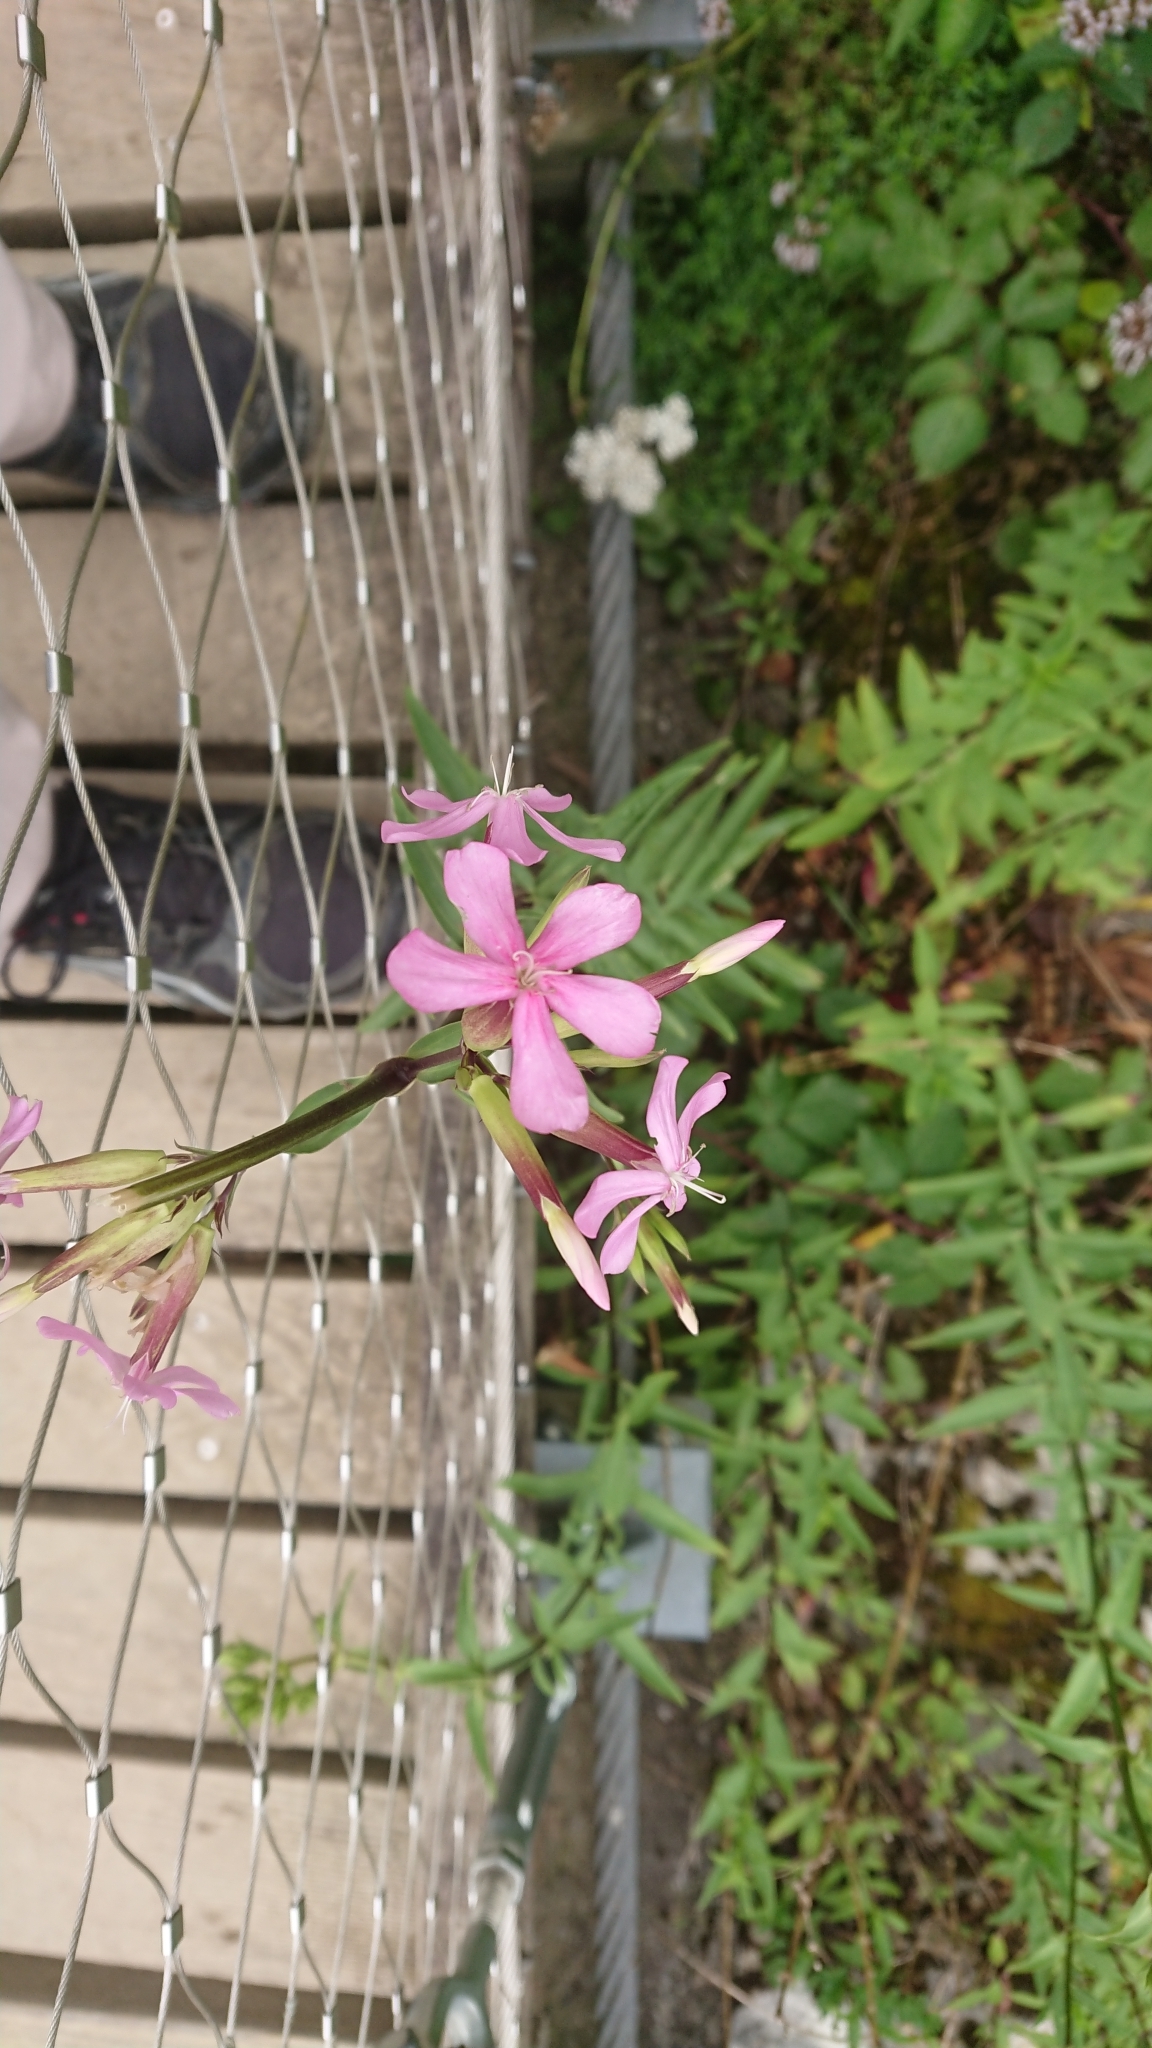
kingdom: Plantae
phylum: Tracheophyta
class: Magnoliopsida
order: Caryophyllales
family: Caryophyllaceae
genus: Saponaria
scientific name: Saponaria officinalis
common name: Soapwort
